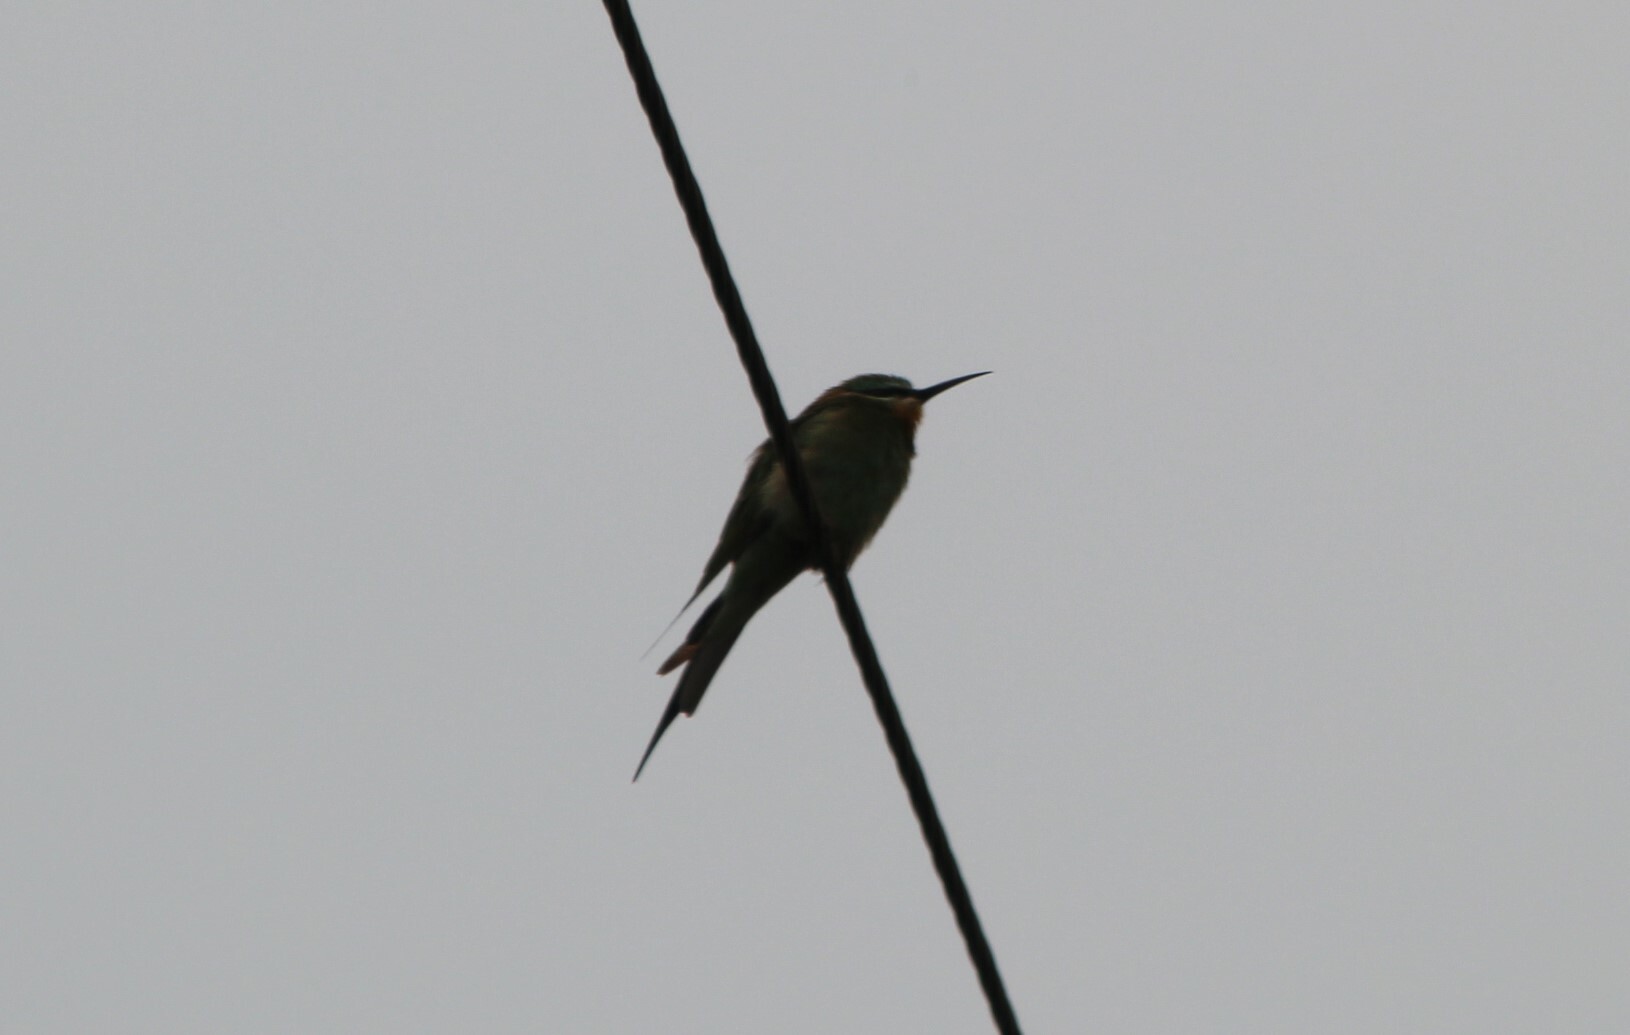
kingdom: Animalia
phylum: Chordata
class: Aves
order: Coraciiformes
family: Meropidae
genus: Merops
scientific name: Merops persicus
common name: Blue-cheeked bee-eater
